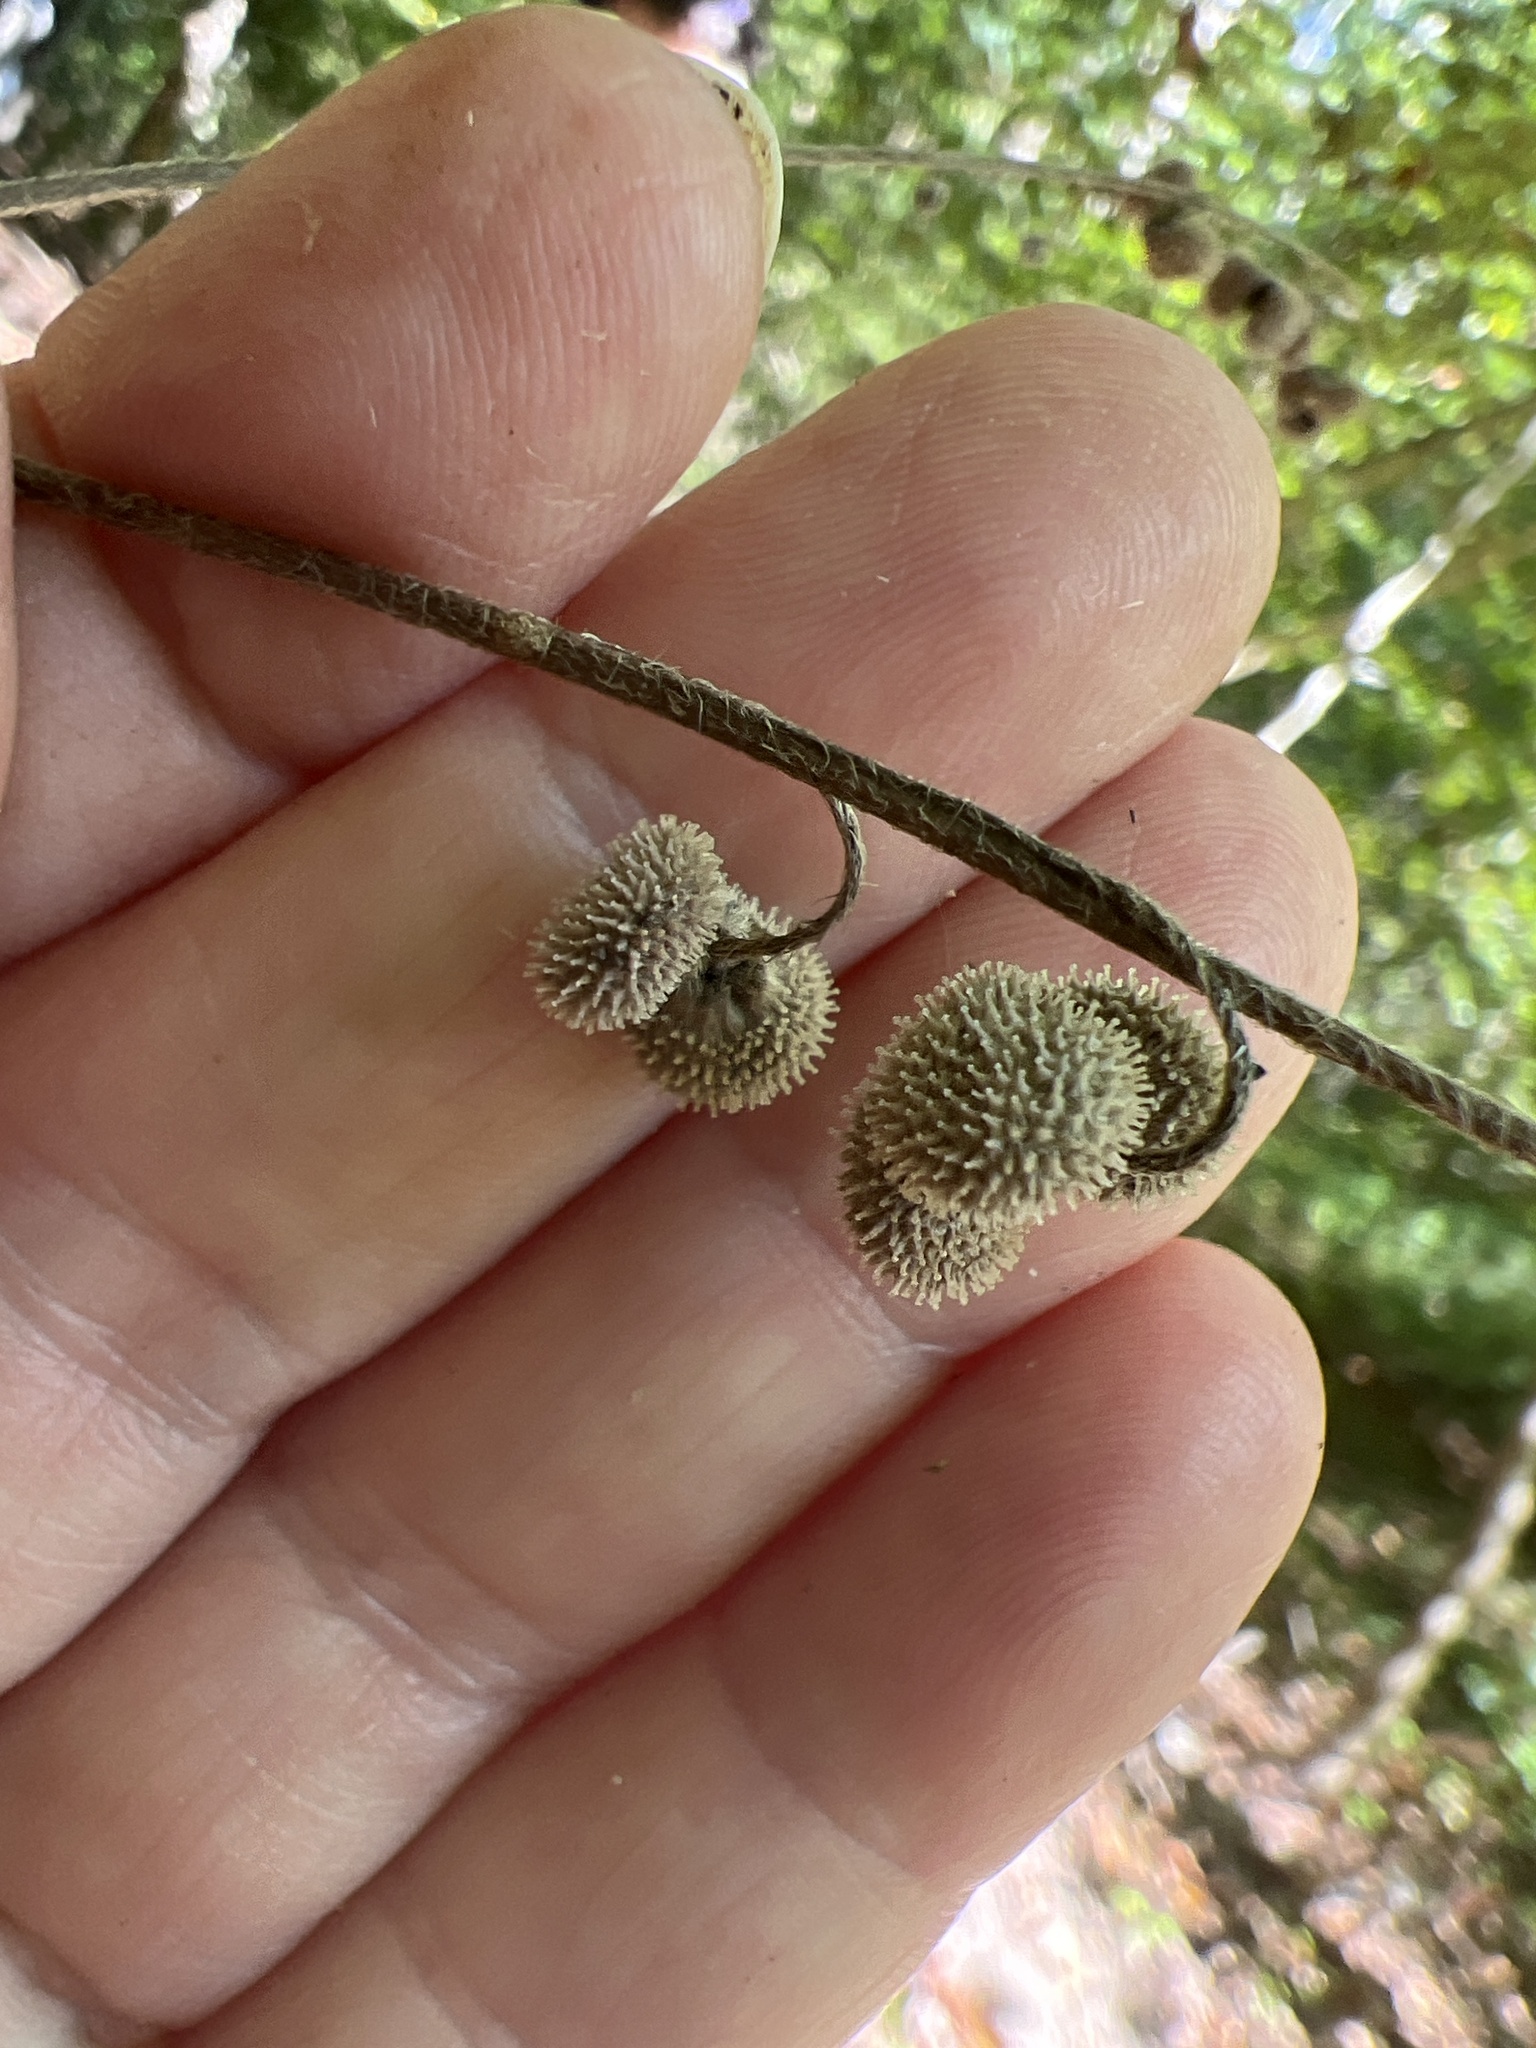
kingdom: Plantae
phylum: Tracheophyta
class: Magnoliopsida
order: Boraginales
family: Boraginaceae
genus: Andersonglossum
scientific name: Andersonglossum virginianum
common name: Wild comfrey
